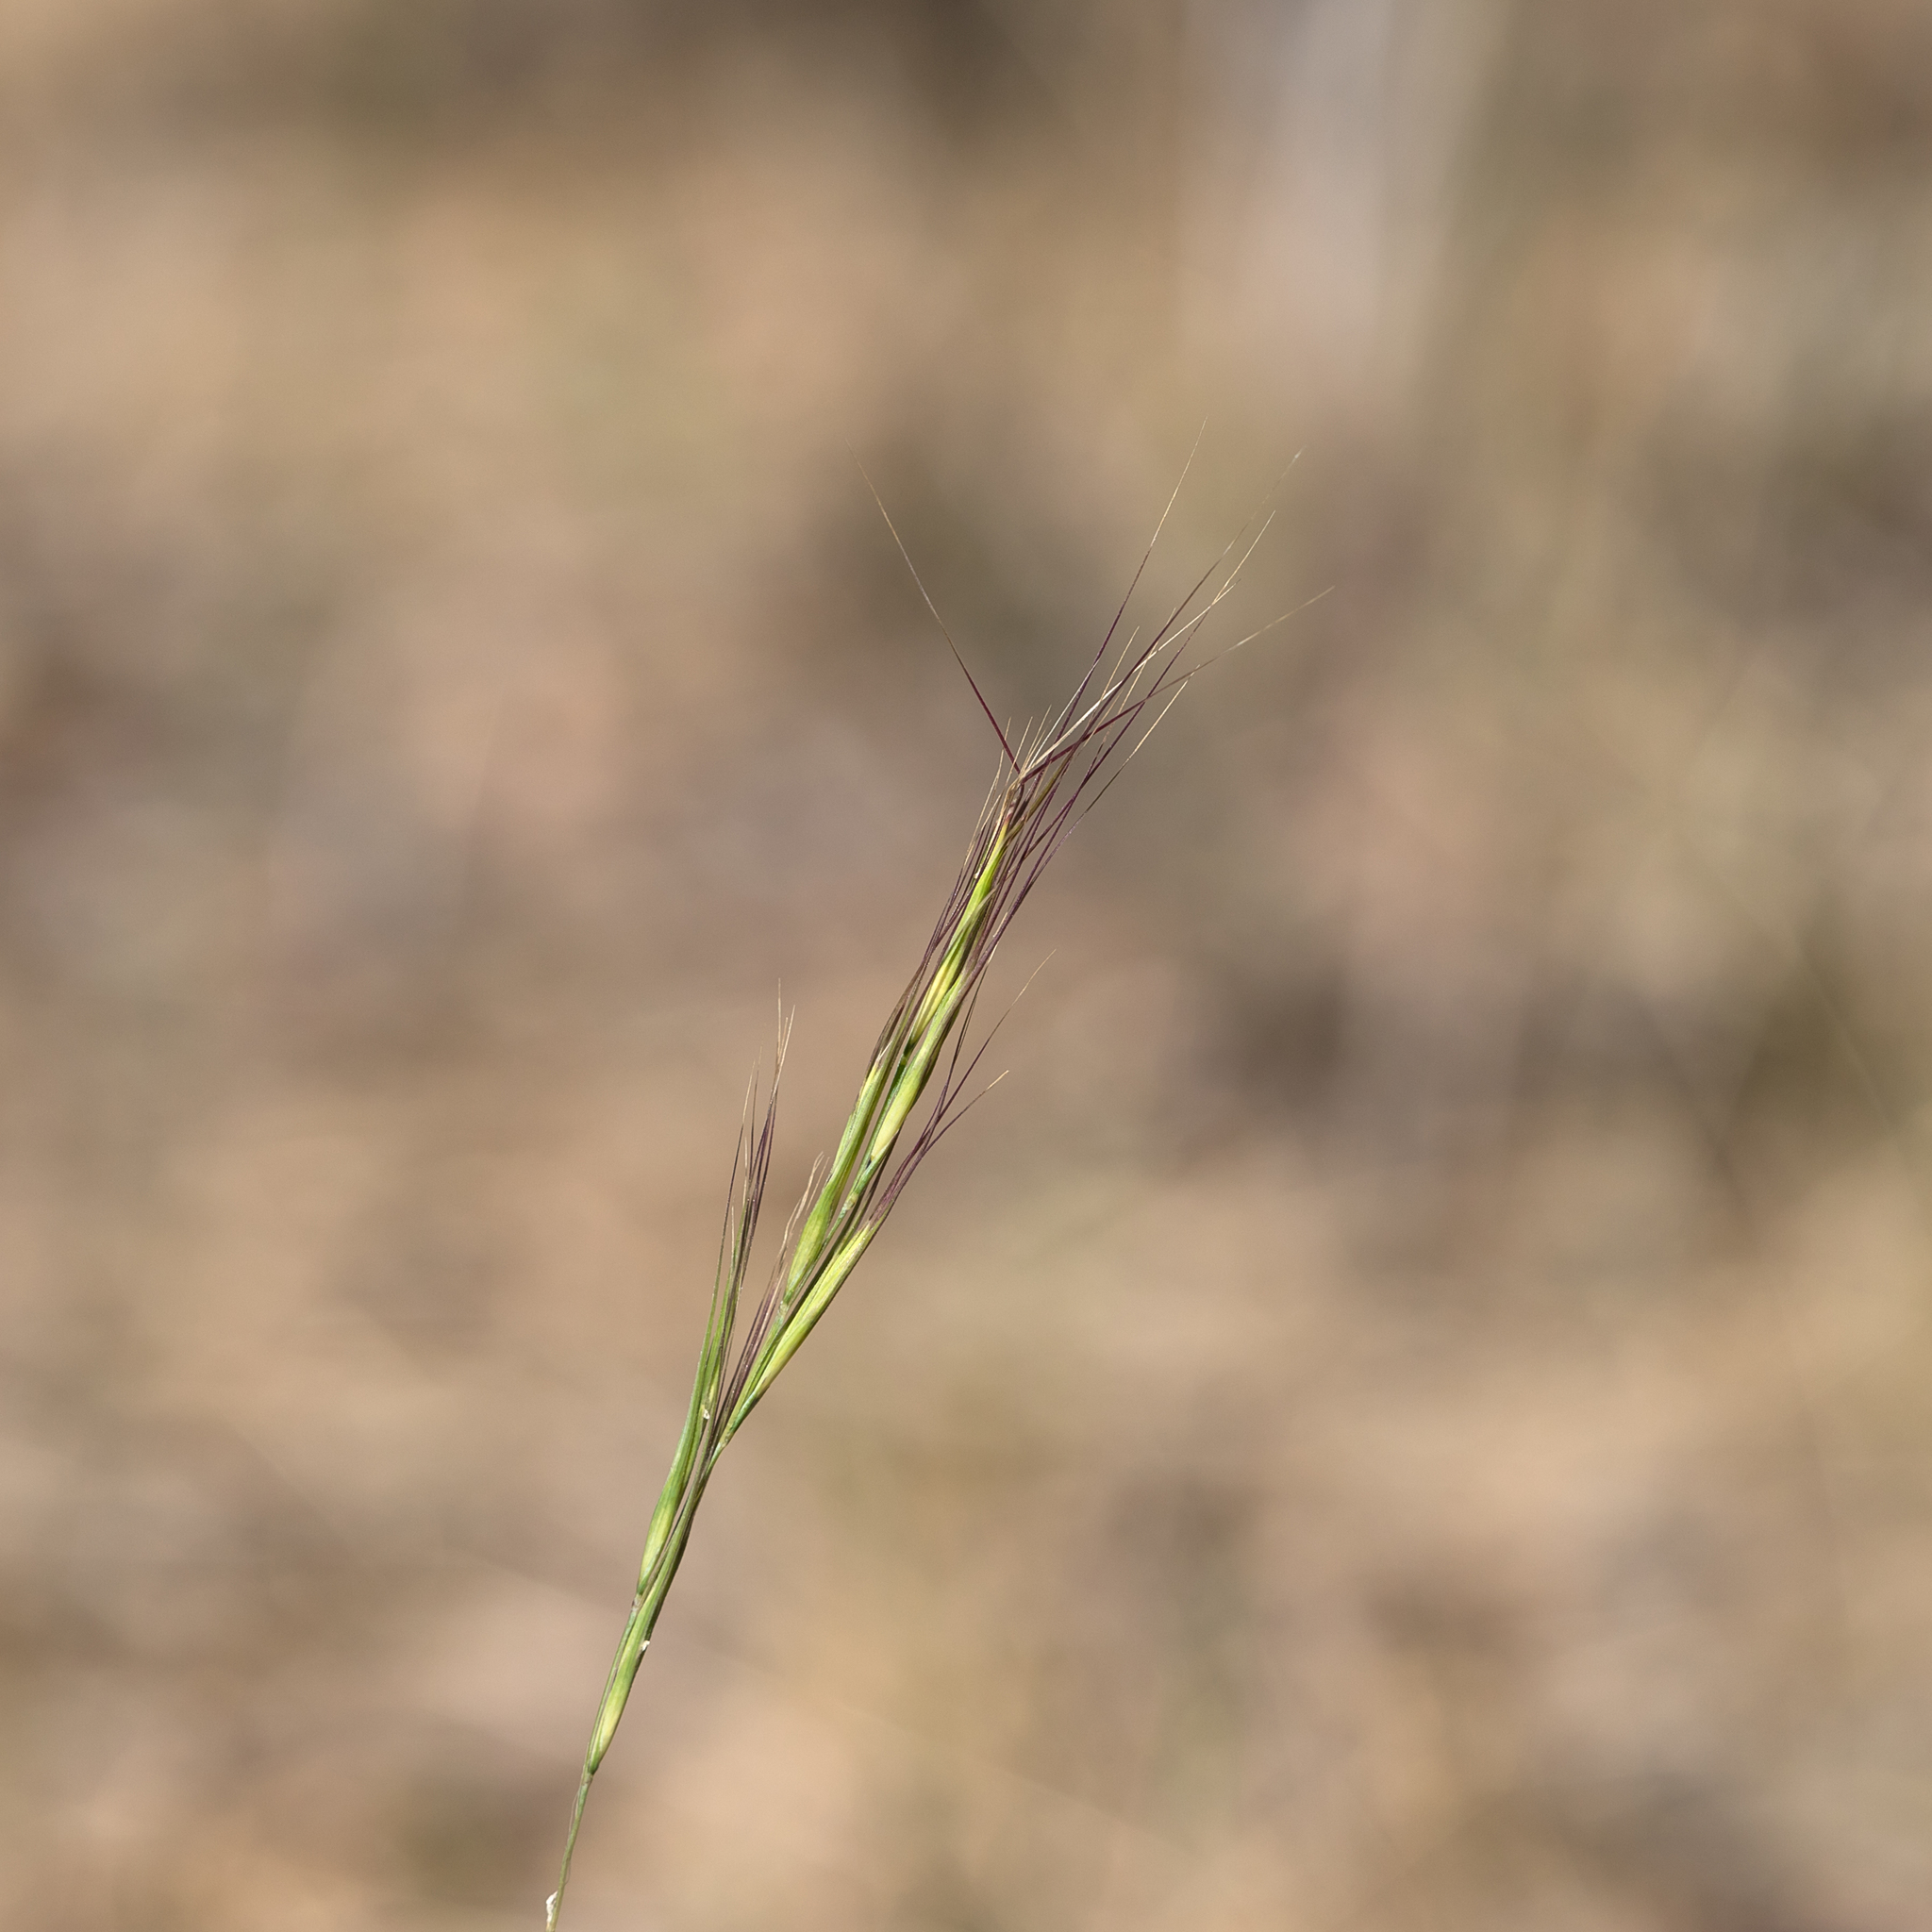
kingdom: Plantae
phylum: Tracheophyta
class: Liliopsida
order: Poales
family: Poaceae
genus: Anthosachne
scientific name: Anthosachne scabra
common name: Common wheatgrass
